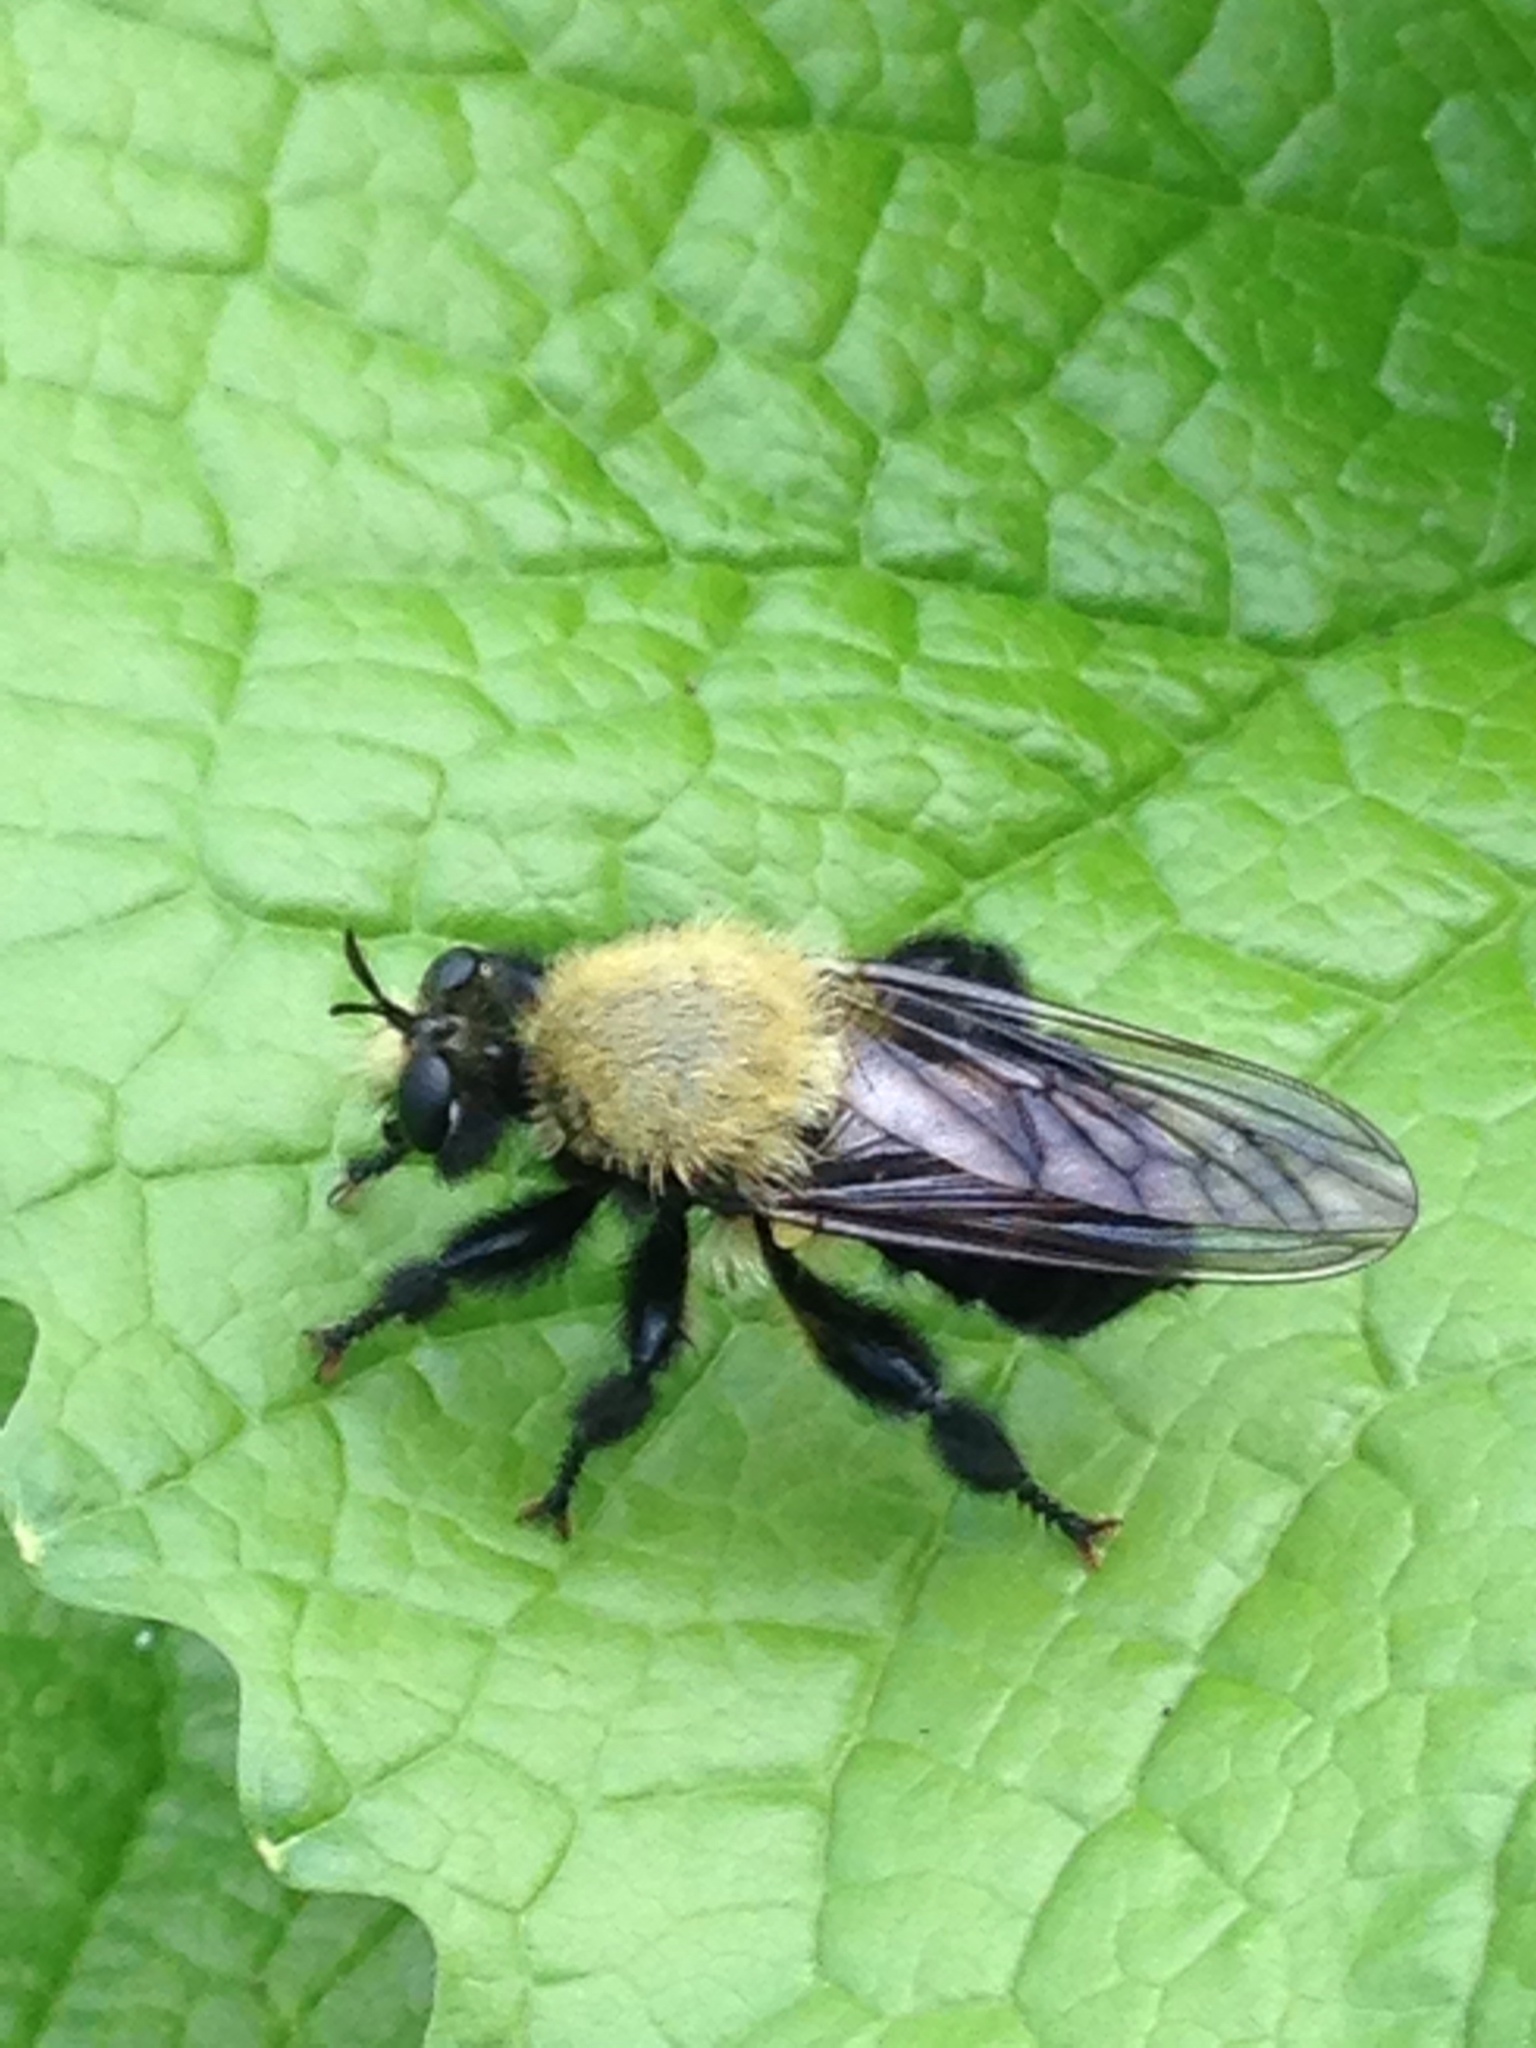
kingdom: Animalia
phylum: Arthropoda
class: Insecta
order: Diptera
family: Asilidae
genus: Laphria
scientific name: Laphria flavicollis
